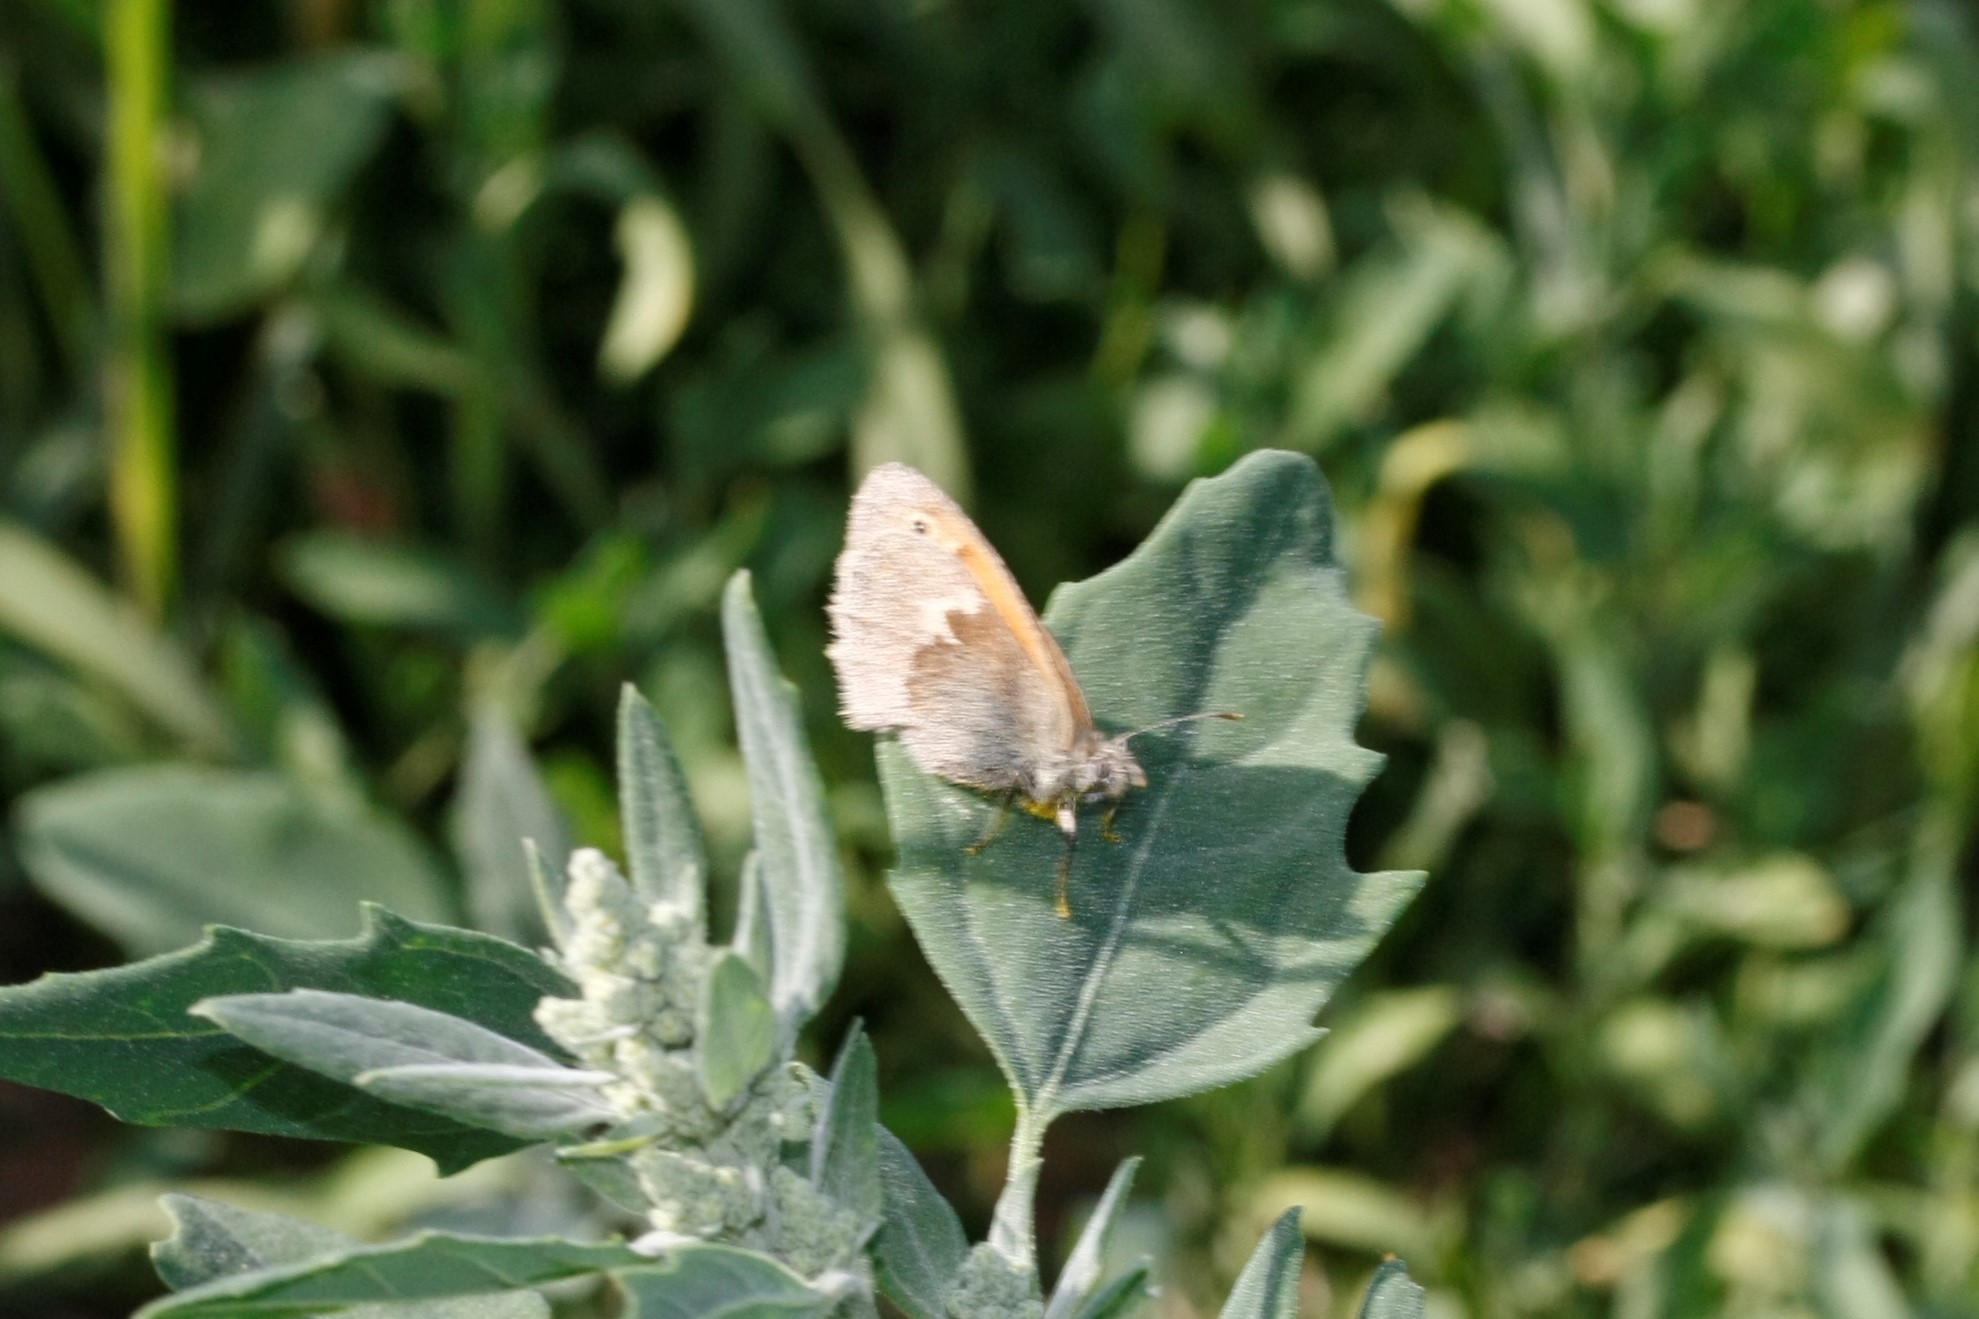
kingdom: Animalia
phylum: Arthropoda
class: Insecta
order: Lepidoptera
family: Nymphalidae
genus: Coenonympha
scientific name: Coenonympha pamphilus
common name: Small heath
